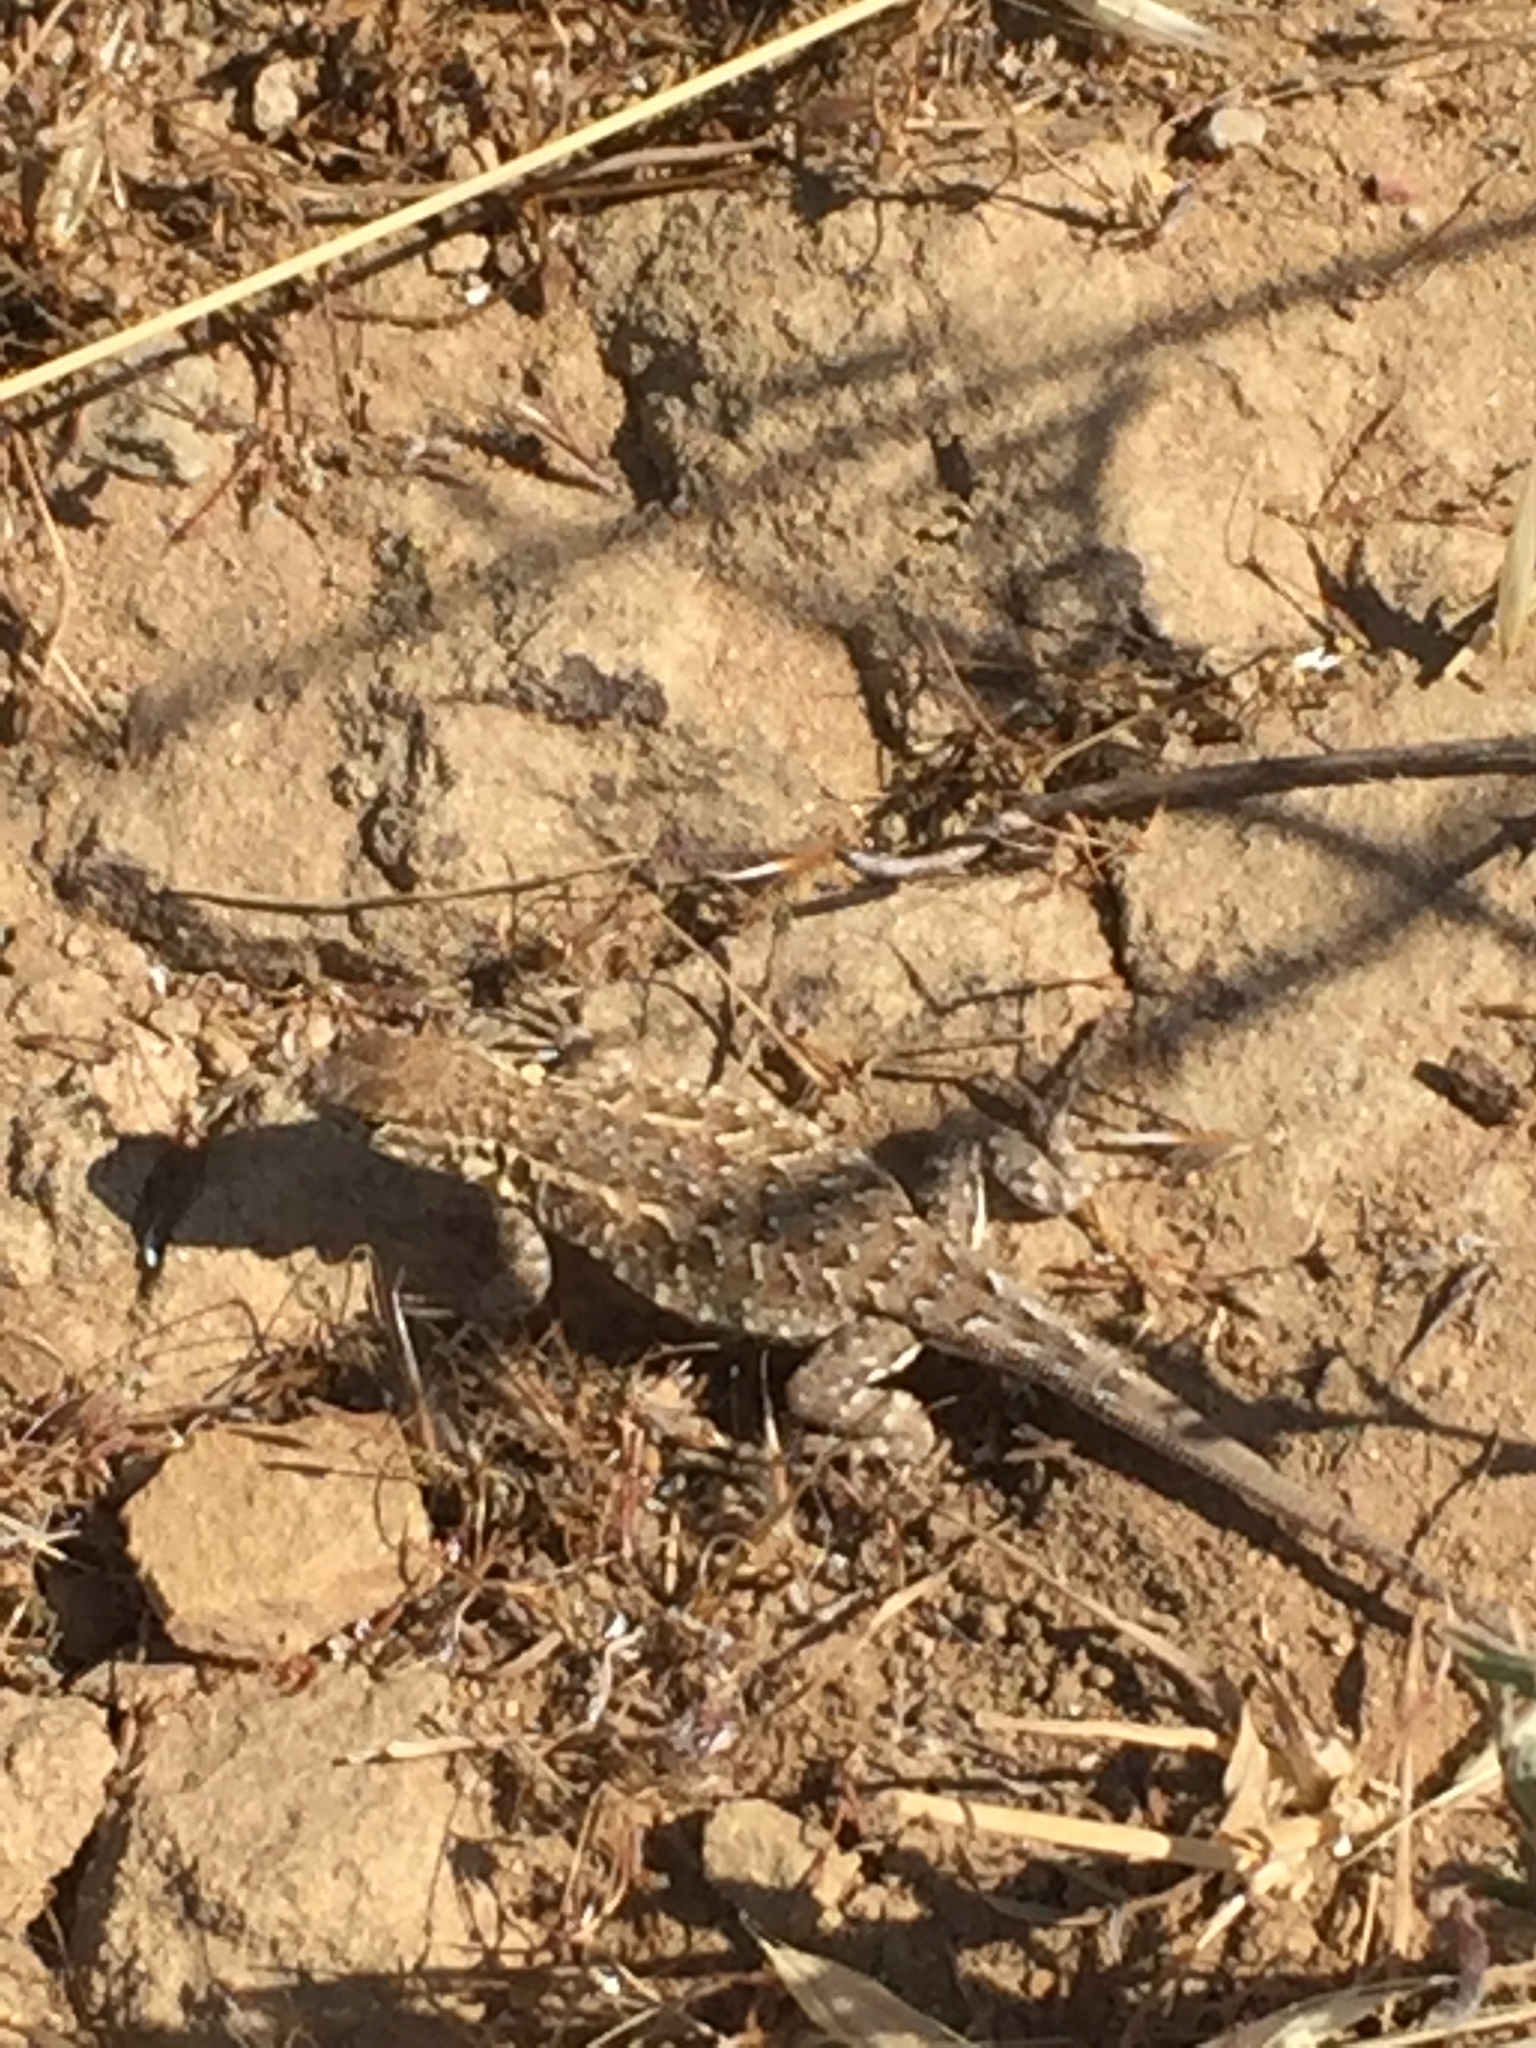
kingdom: Animalia
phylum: Chordata
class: Squamata
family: Phrynosomatidae
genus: Uta
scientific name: Uta stansburiana
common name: Side-blotched lizard
